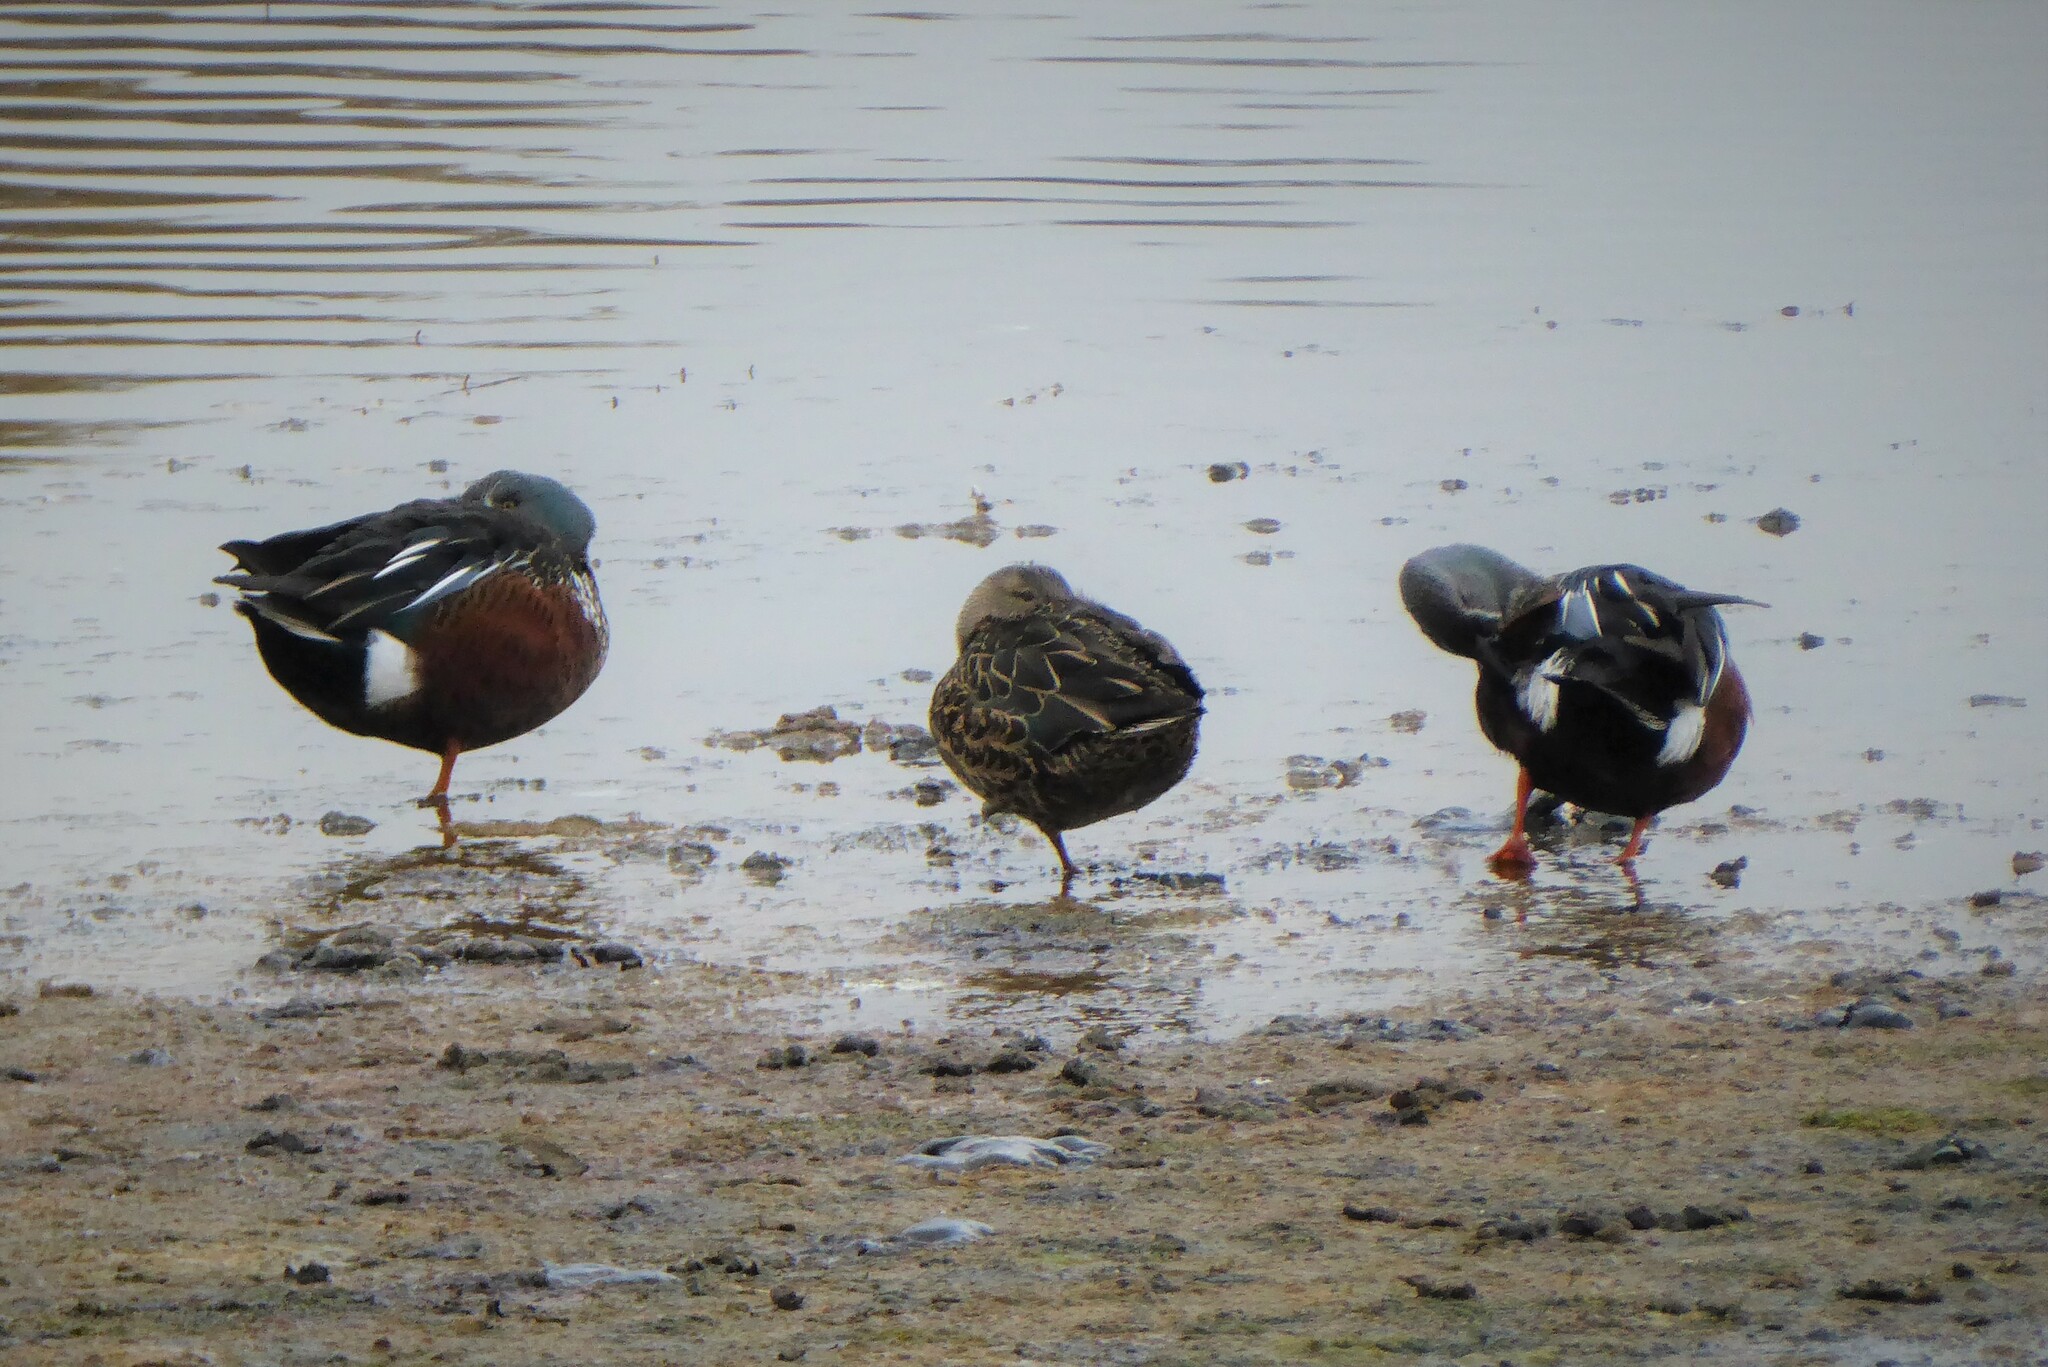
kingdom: Animalia
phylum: Chordata
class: Aves
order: Anseriformes
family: Anatidae
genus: Spatula
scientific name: Spatula rhynchotis
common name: Australian shoveler
